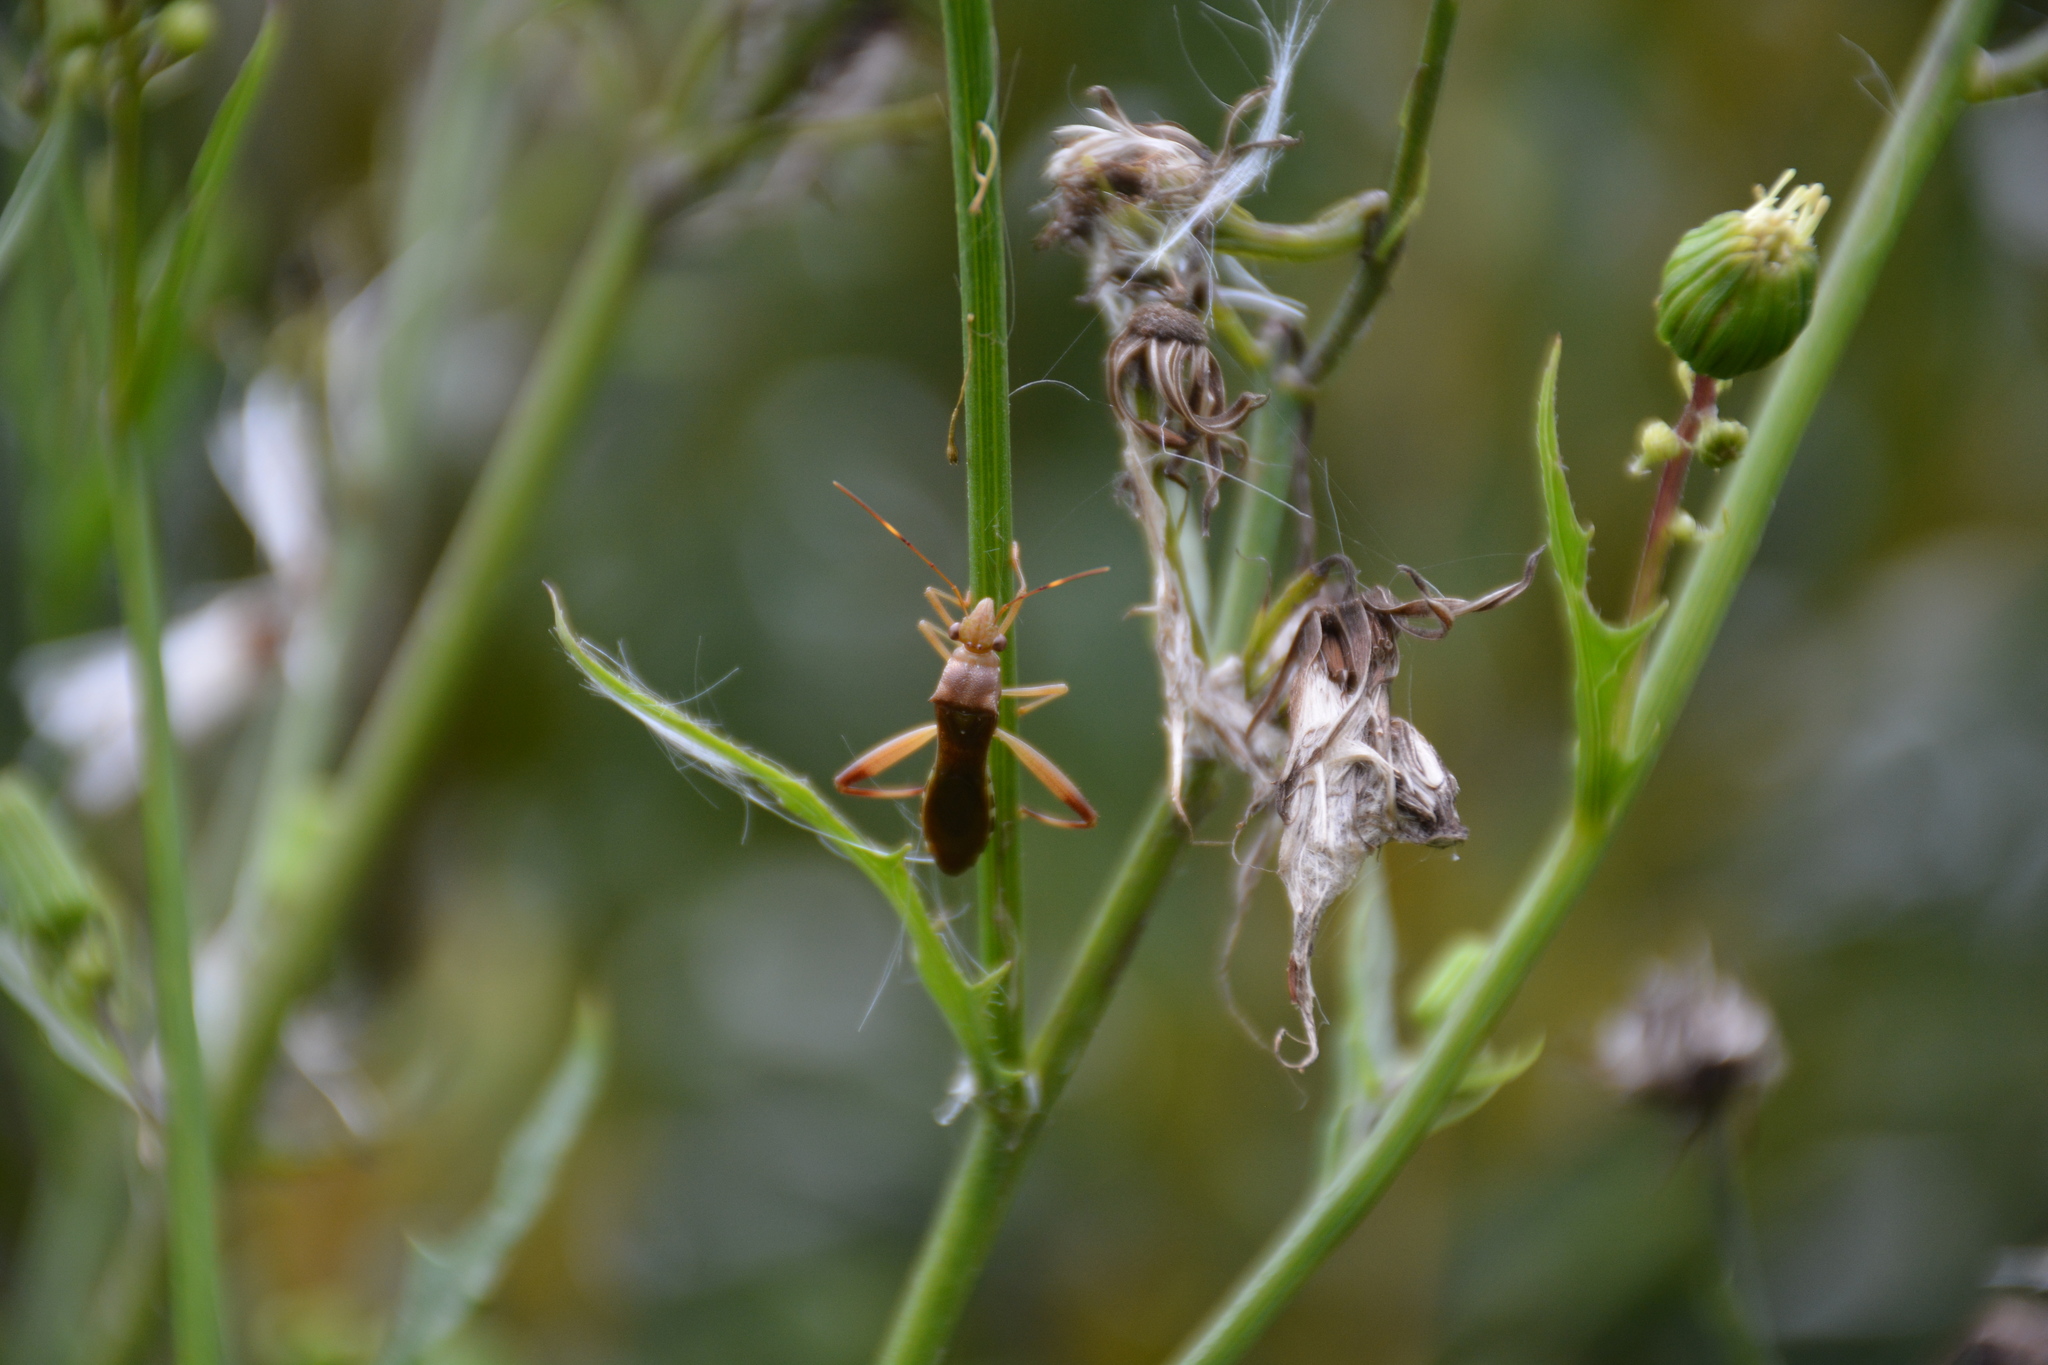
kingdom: Animalia
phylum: Arthropoda
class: Insecta
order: Hemiptera
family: Alydidae
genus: Hyalymenus
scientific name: Hyalymenus tarsatus
